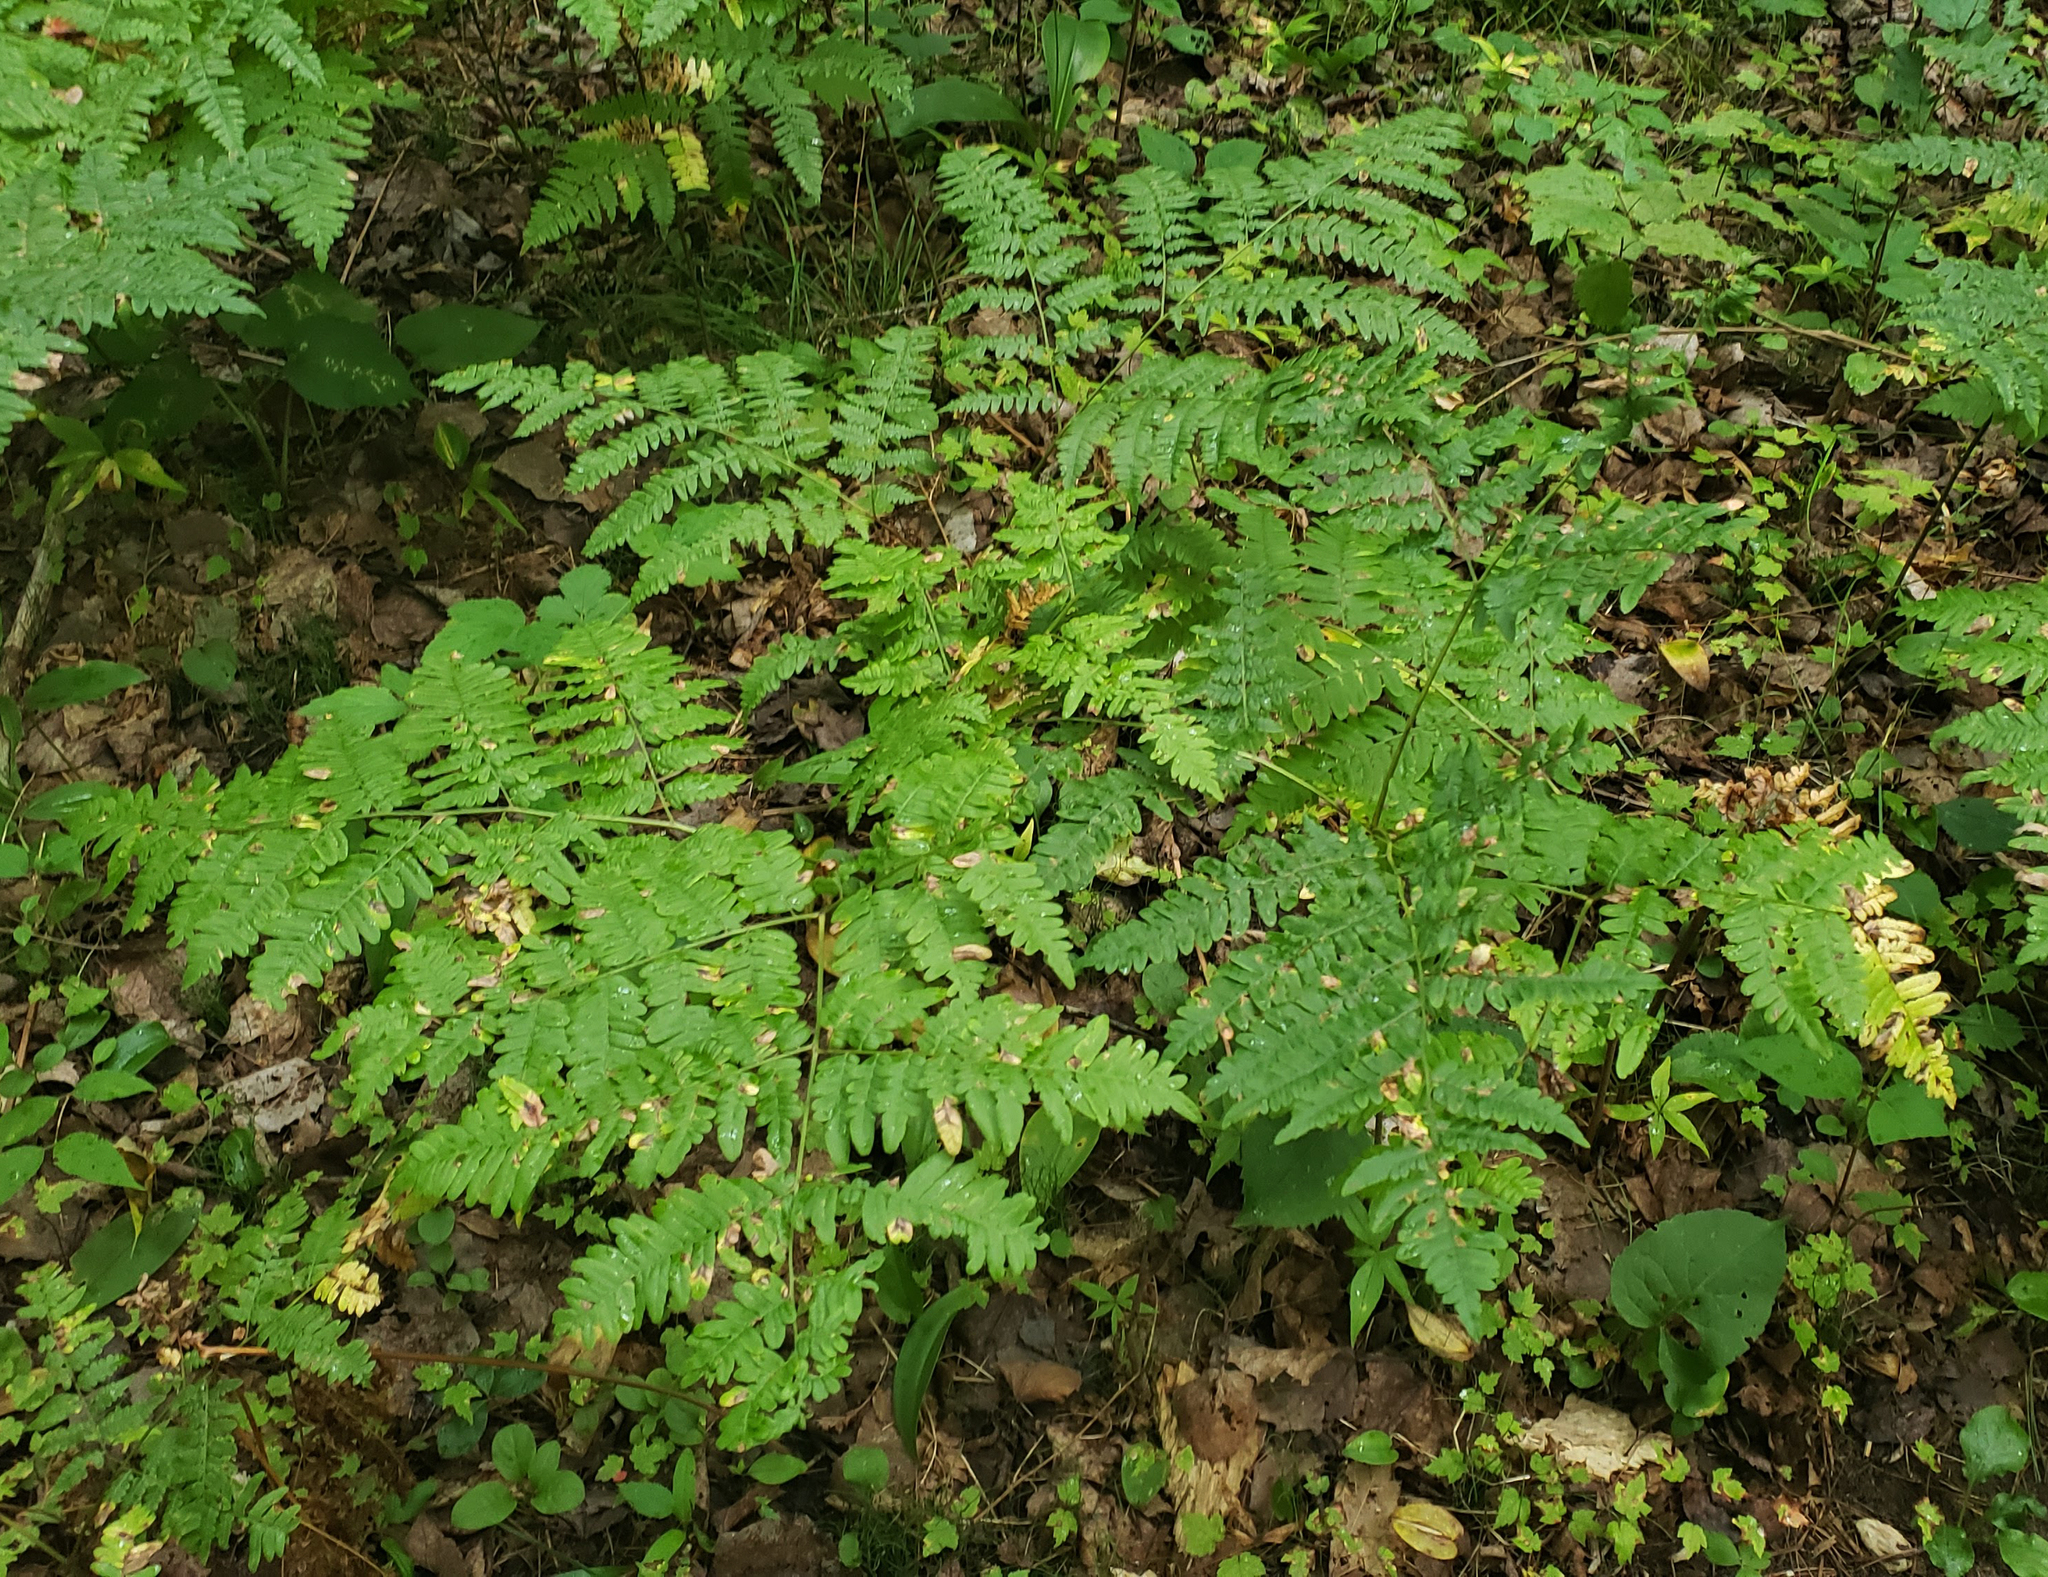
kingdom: Plantae
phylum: Tracheophyta
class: Polypodiopsida
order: Polypodiales
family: Dennstaedtiaceae
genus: Pteridium
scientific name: Pteridium aquilinum
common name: Bracken
